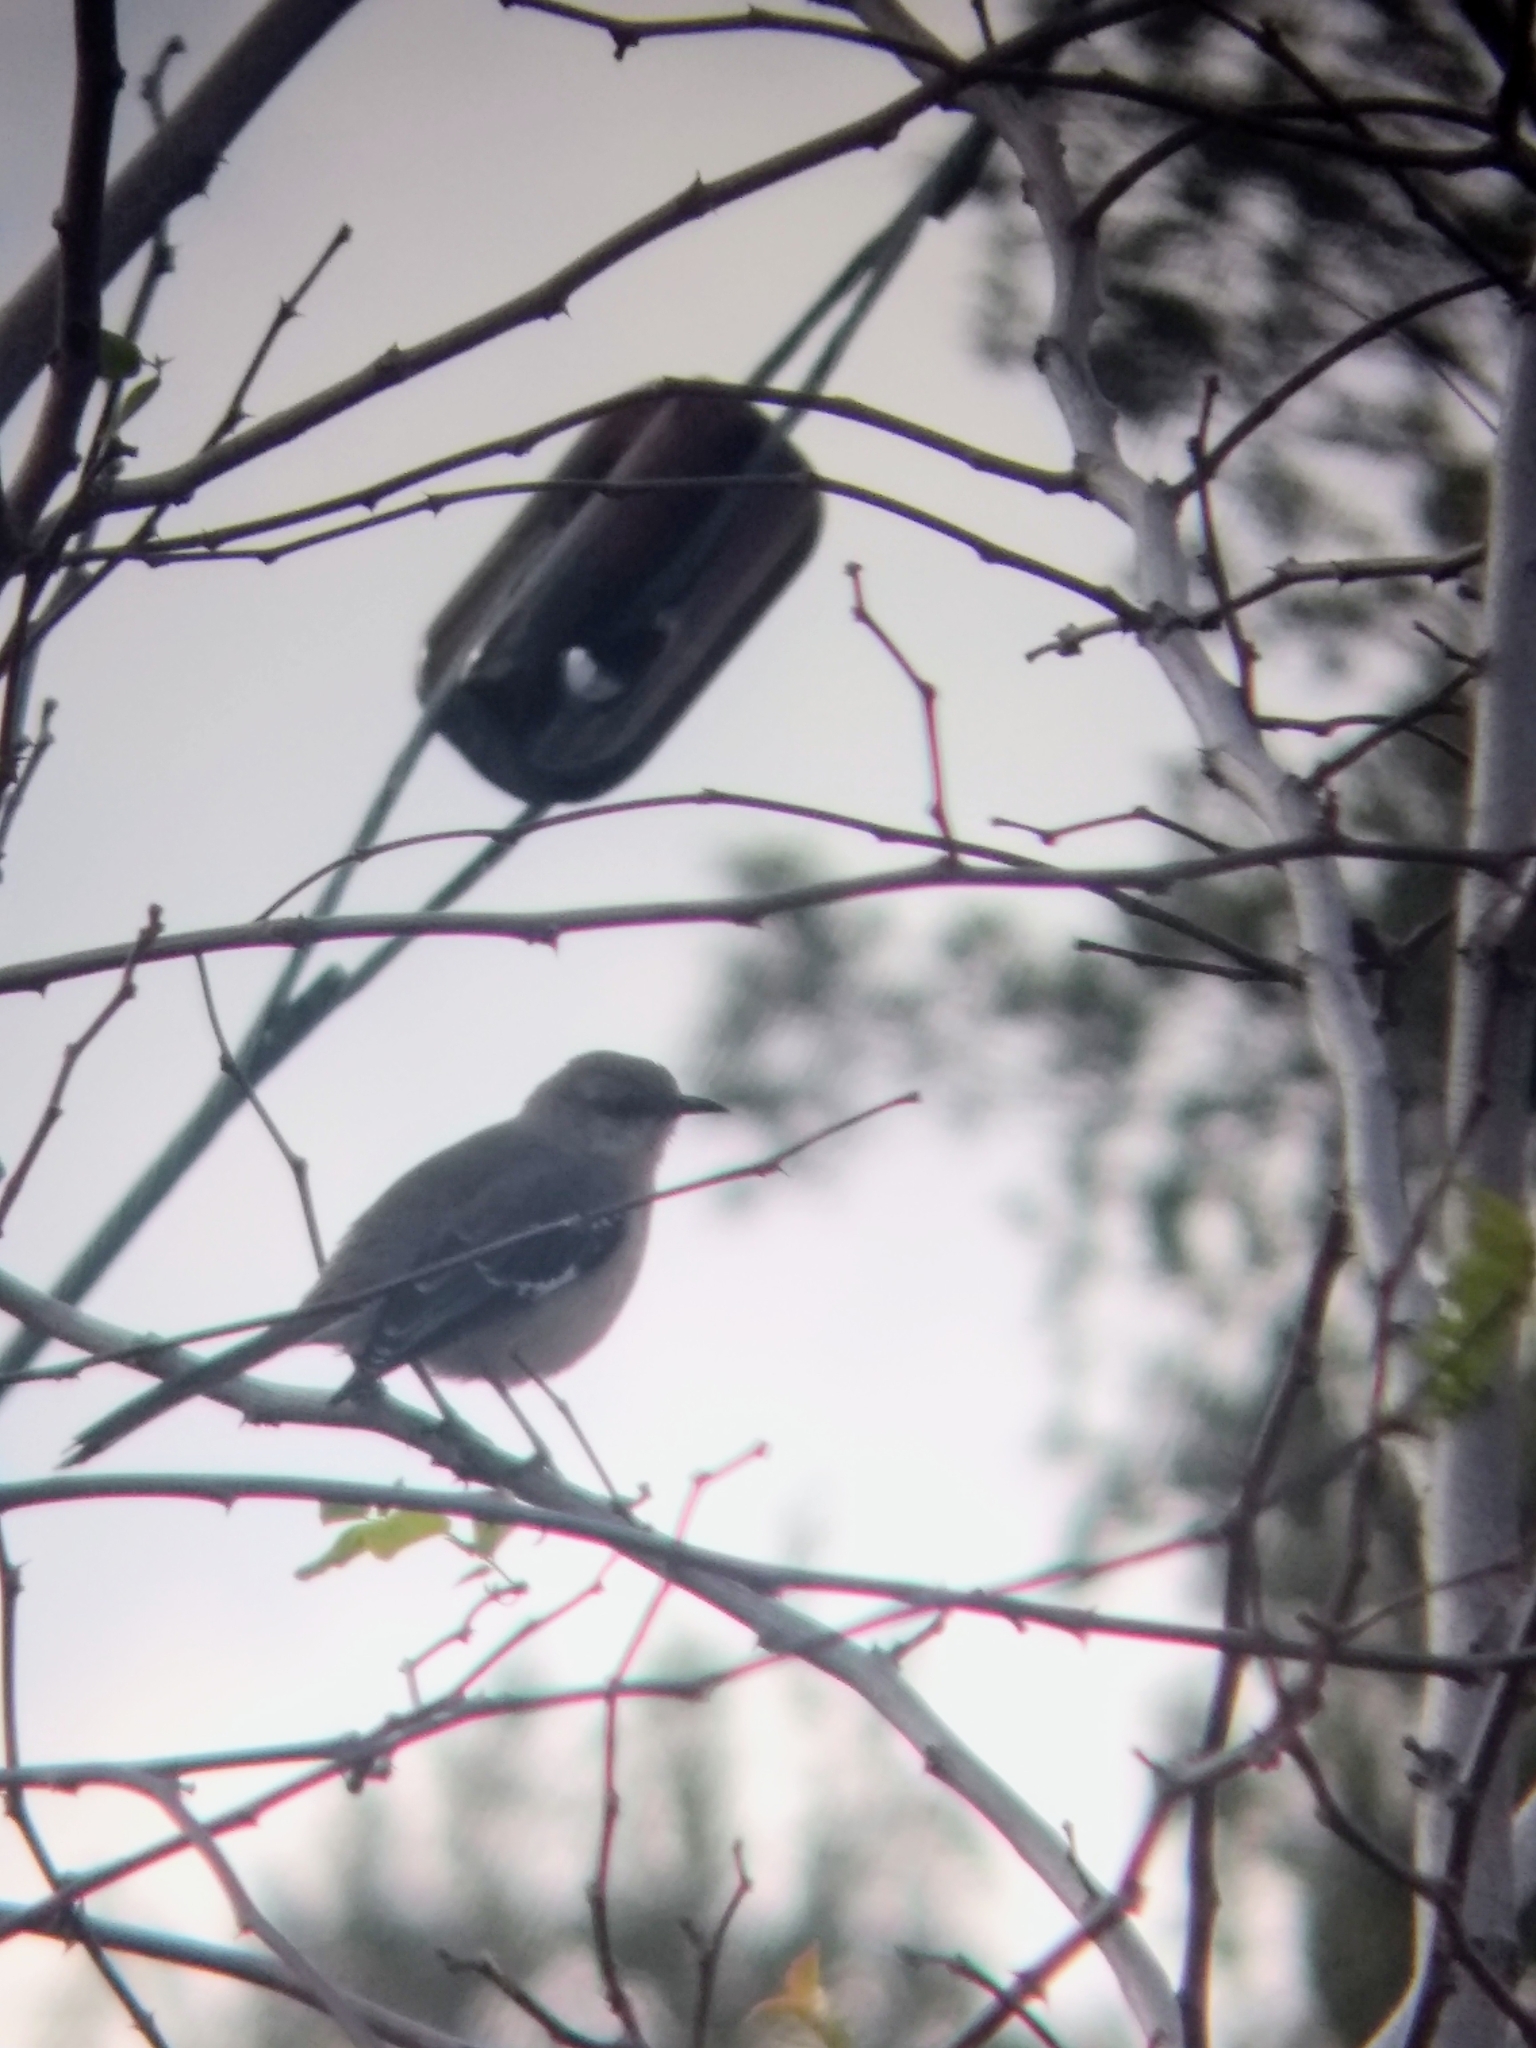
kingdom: Animalia
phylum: Chordata
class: Aves
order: Passeriformes
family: Mimidae
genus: Mimus
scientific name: Mimus polyglottos
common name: Northern mockingbird
